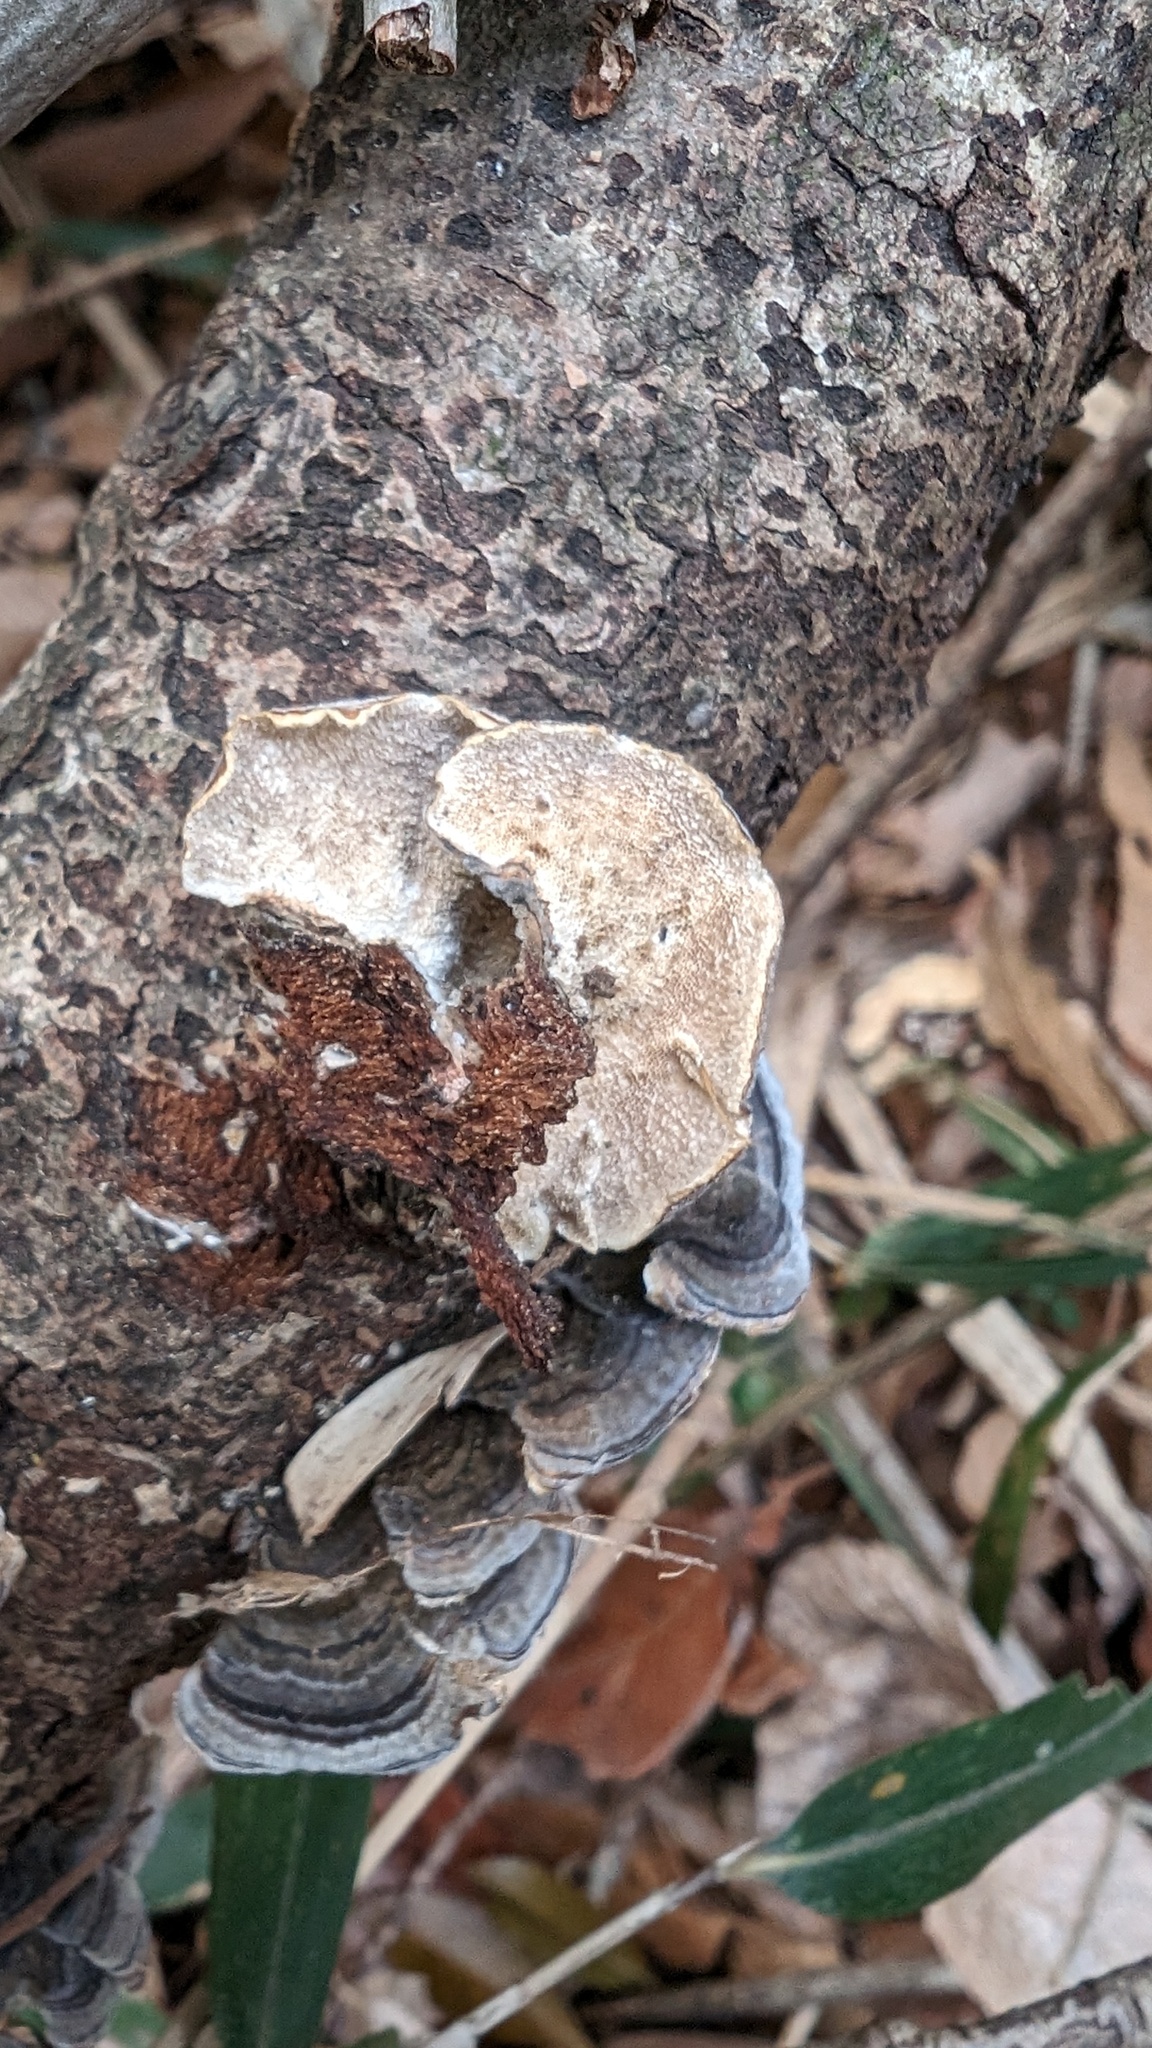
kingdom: Fungi
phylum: Basidiomycota
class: Agaricomycetes
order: Polyporales
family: Polyporaceae
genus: Trametes
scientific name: Trametes versicolor
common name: Turkeytail
